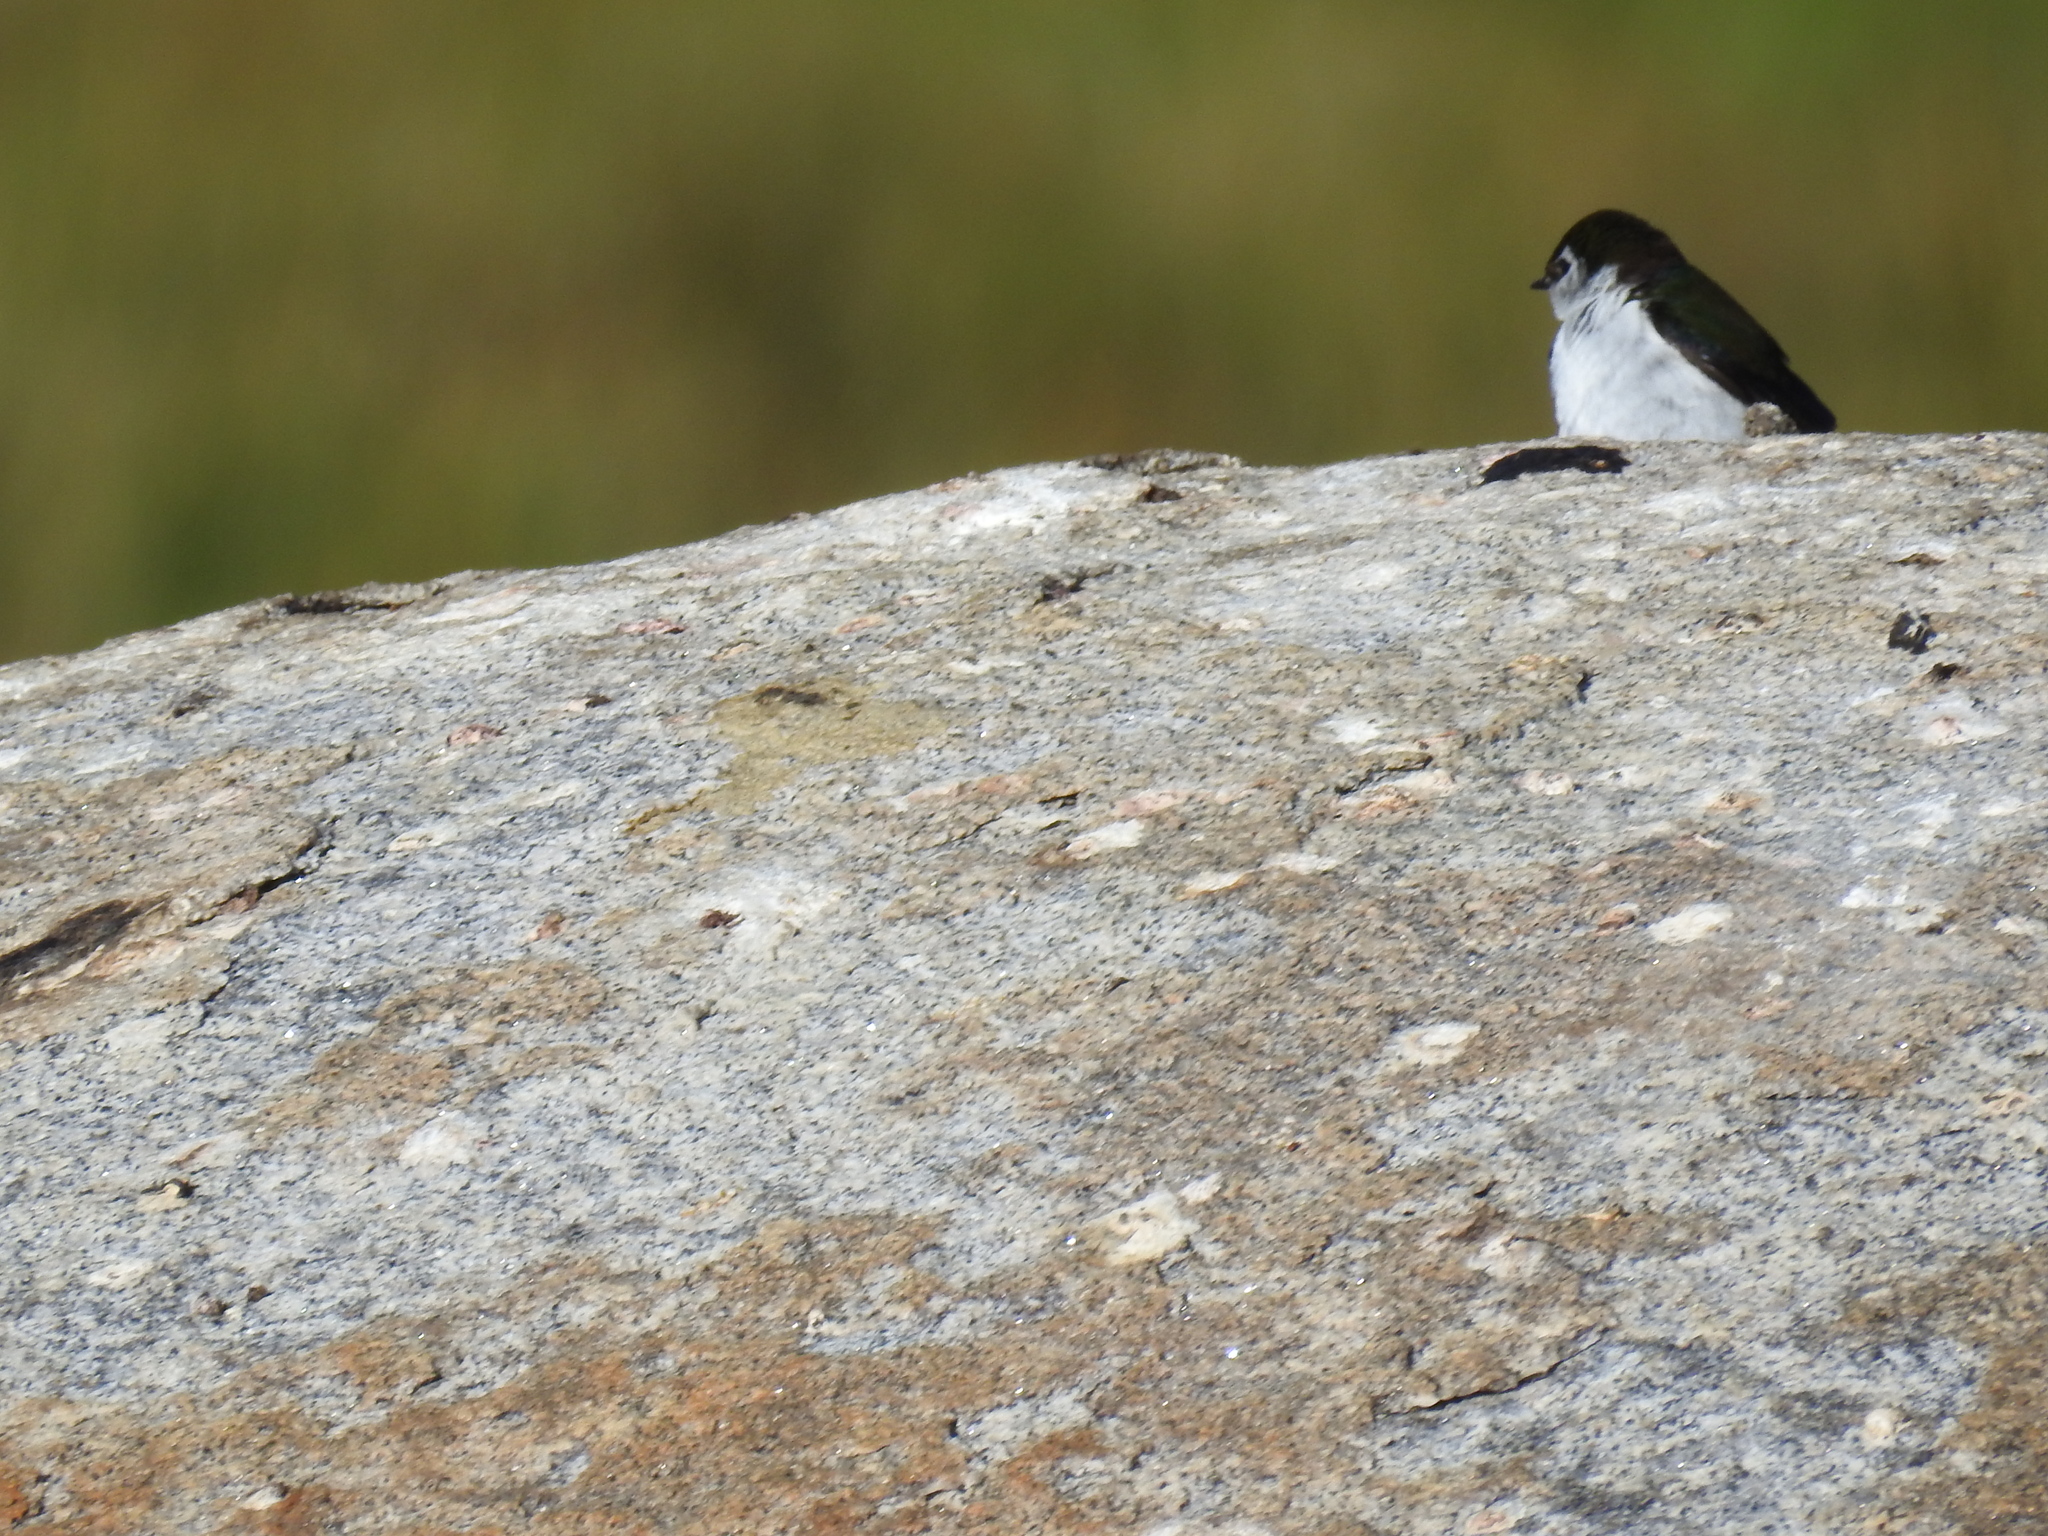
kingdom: Animalia
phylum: Chordata
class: Aves
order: Passeriformes
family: Hirundinidae
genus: Tachycineta
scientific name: Tachycineta thalassina
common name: Violet-green swallow
